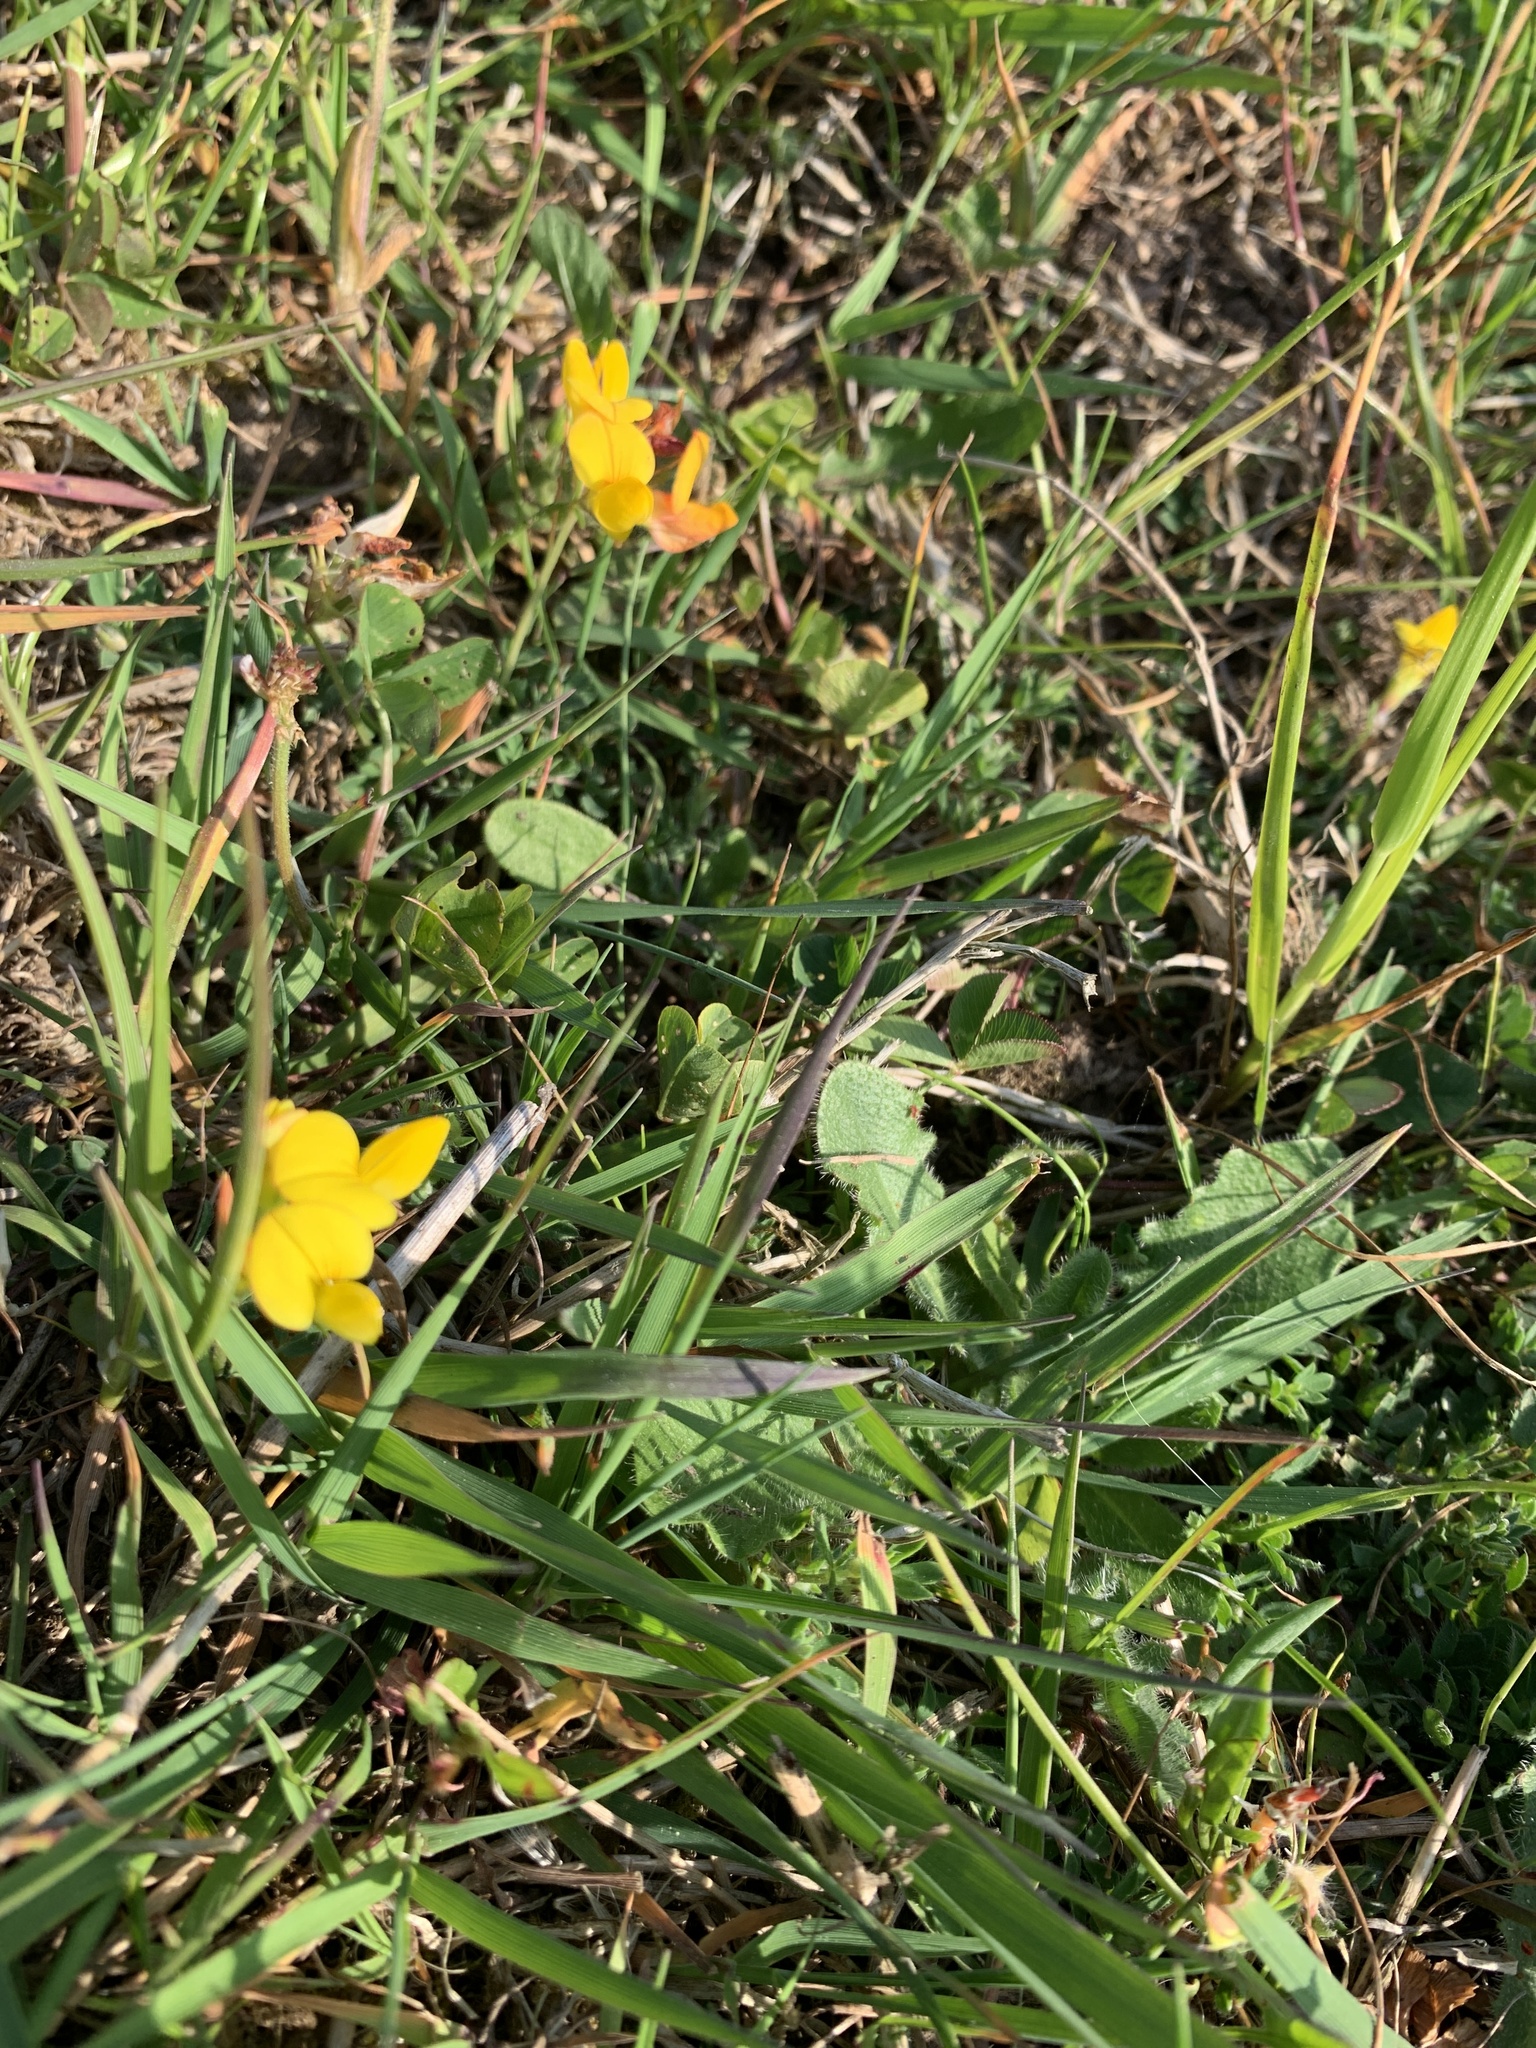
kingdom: Plantae
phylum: Tracheophyta
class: Magnoliopsida
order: Fabales
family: Fabaceae
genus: Lotus
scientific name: Lotus corniculatus
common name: Common bird's-foot-trefoil
